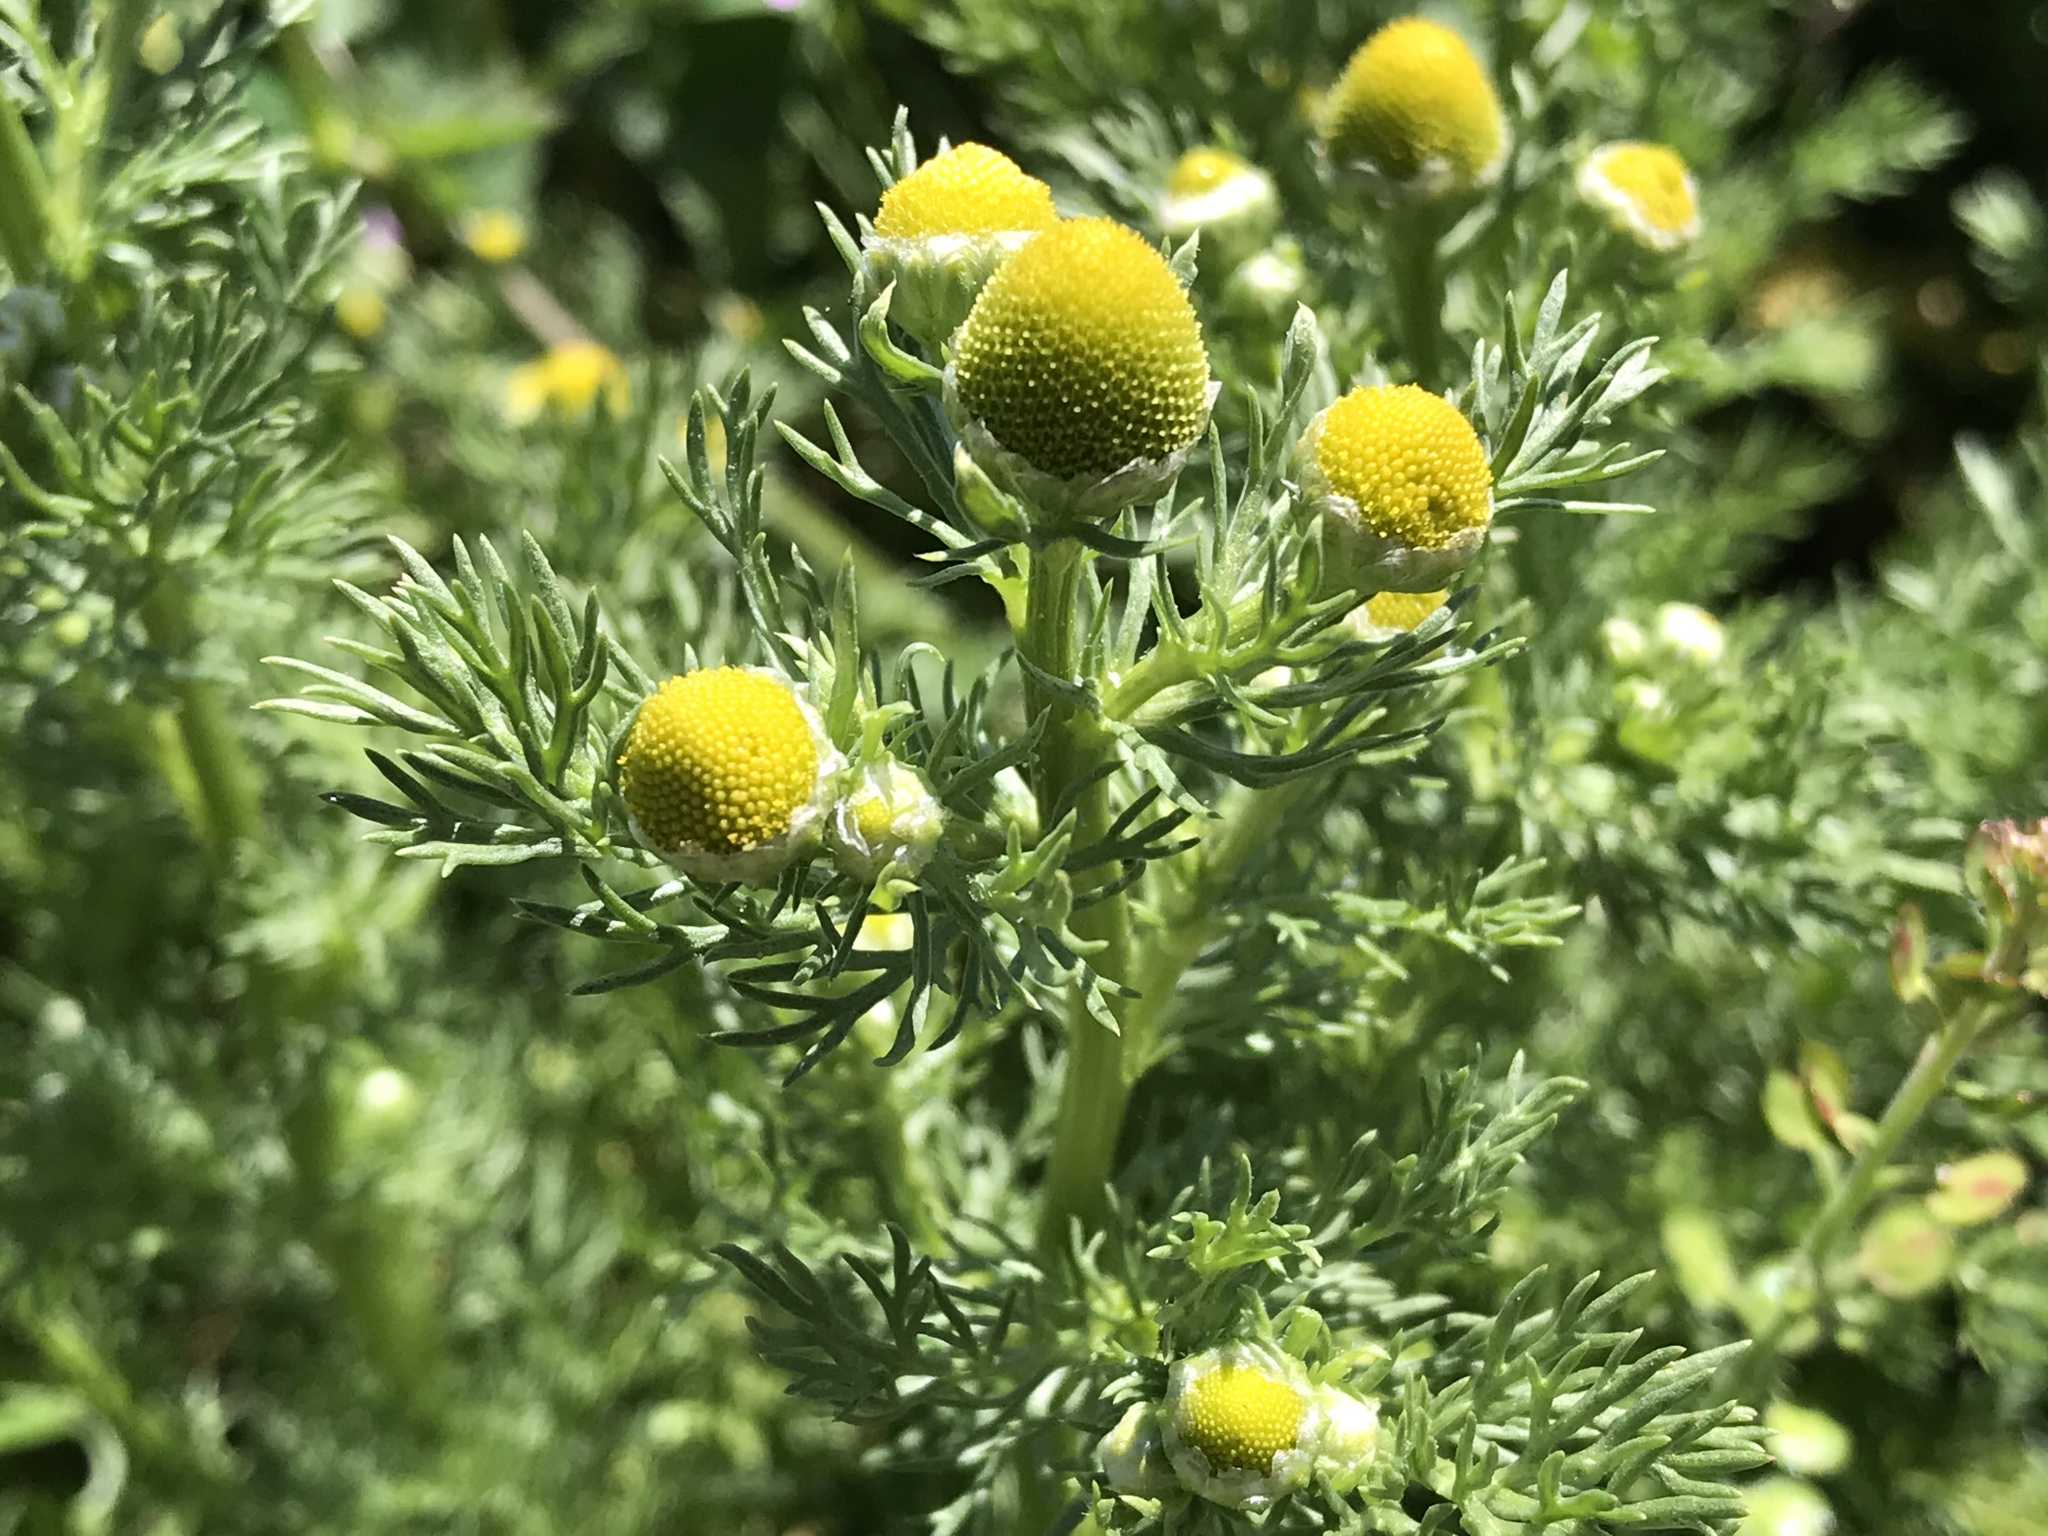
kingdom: Plantae
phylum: Tracheophyta
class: Magnoliopsida
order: Asterales
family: Asteraceae
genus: Matricaria
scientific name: Matricaria discoidea
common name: Disc mayweed
